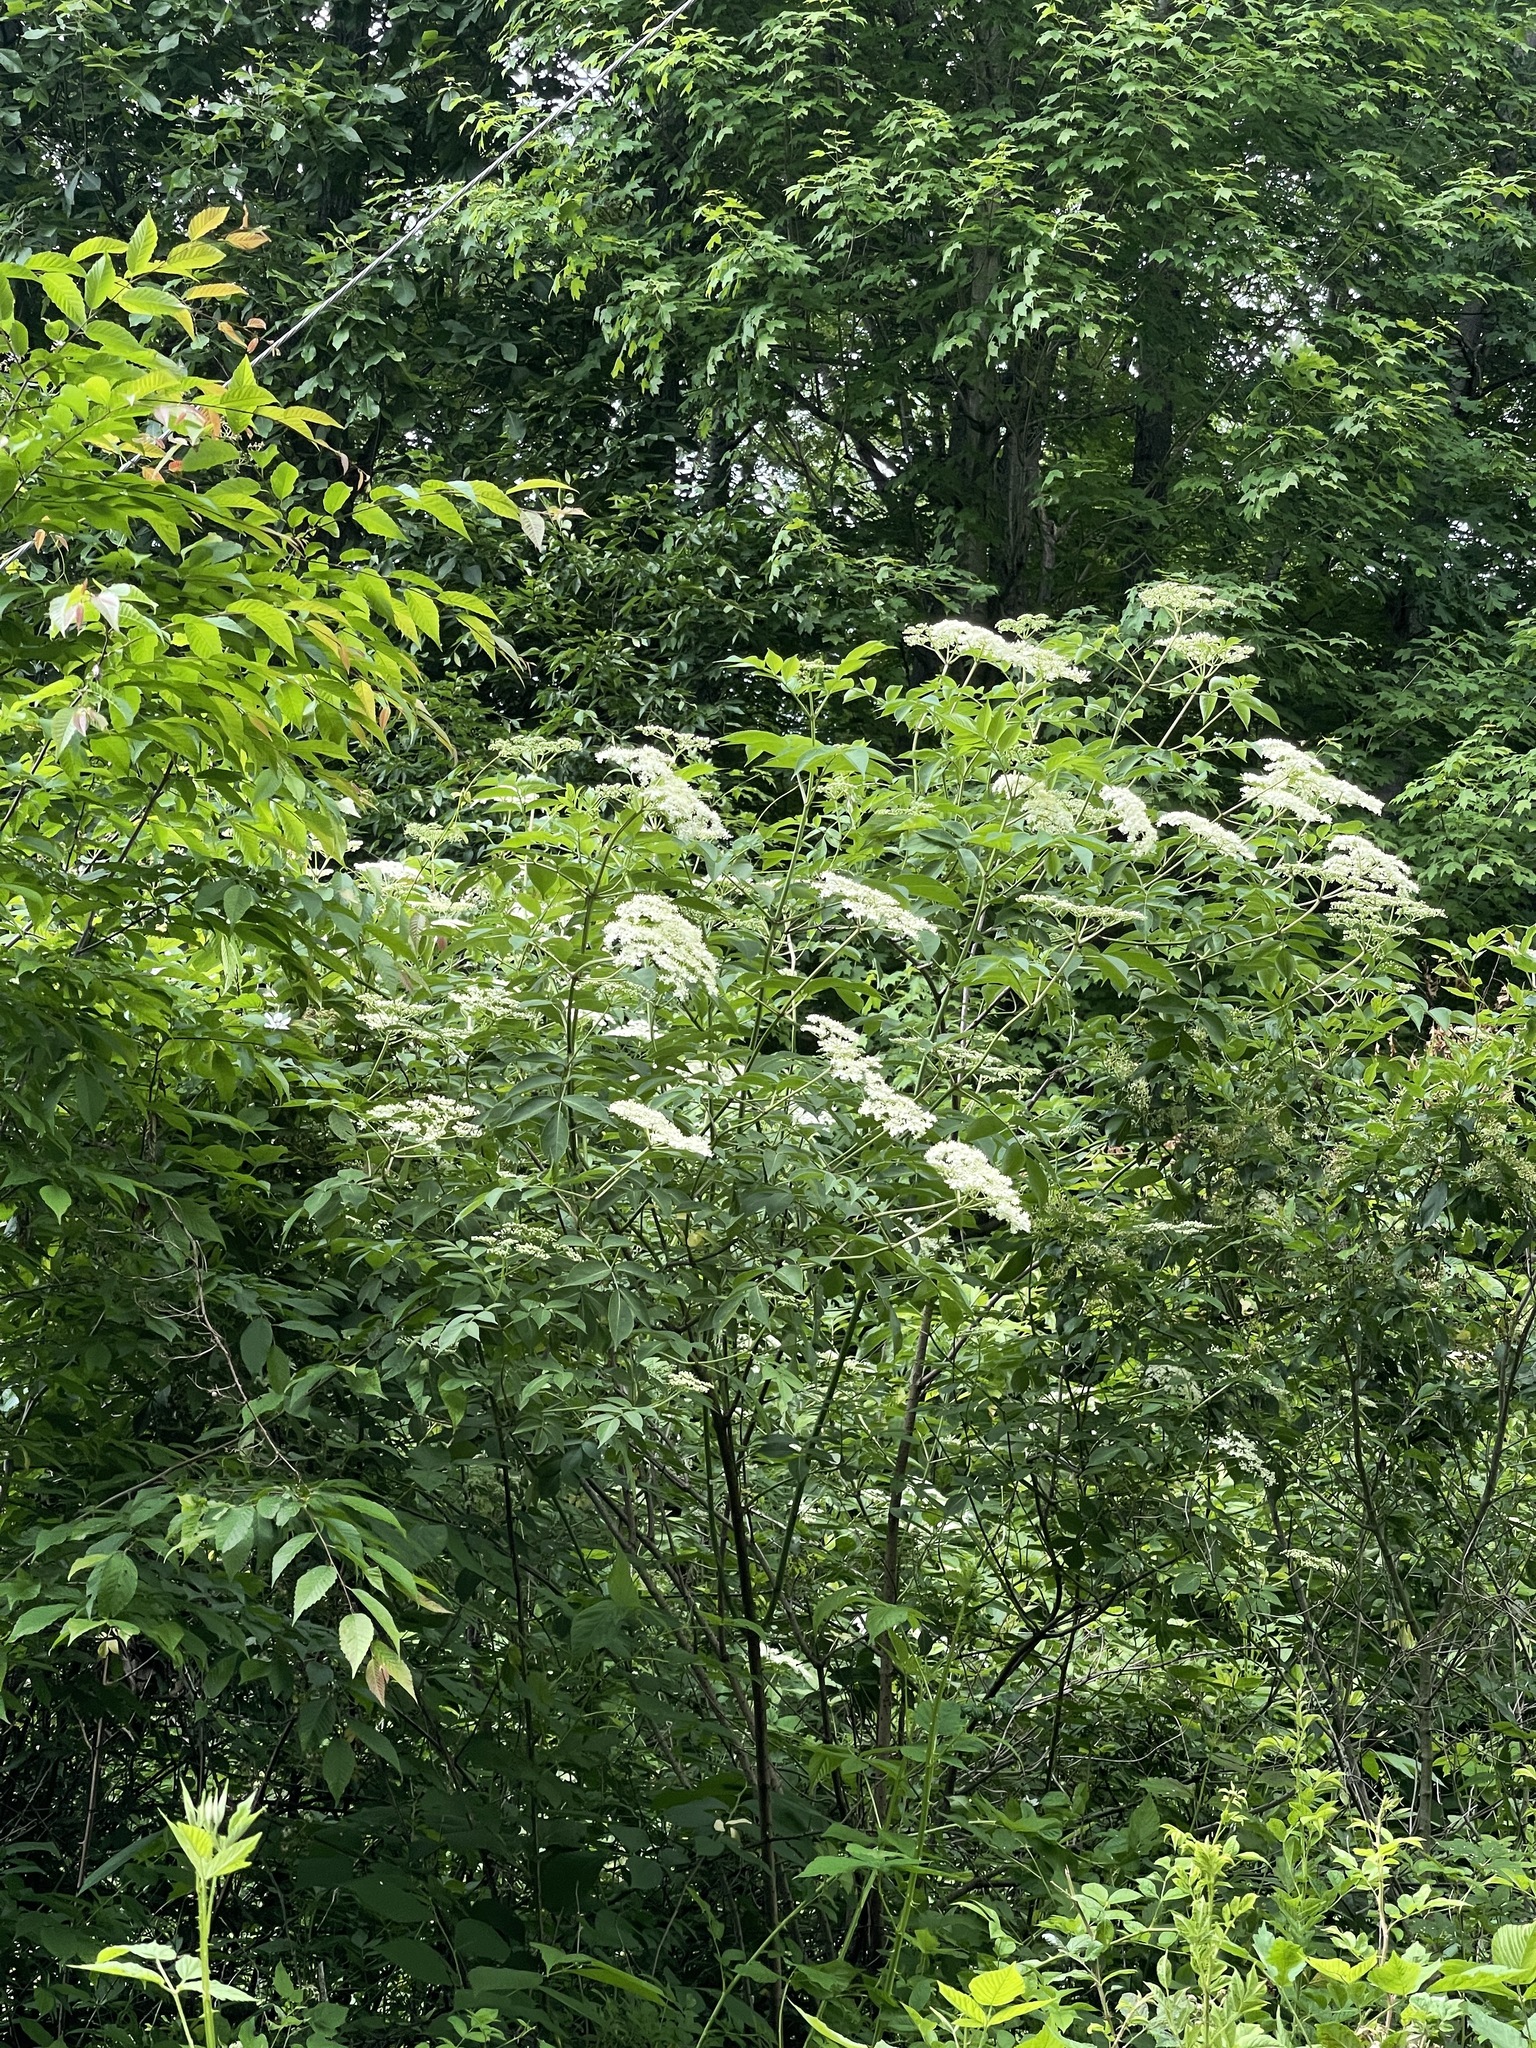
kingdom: Plantae
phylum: Tracheophyta
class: Magnoliopsida
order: Dipsacales
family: Viburnaceae
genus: Sambucus
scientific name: Sambucus canadensis
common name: American elder
